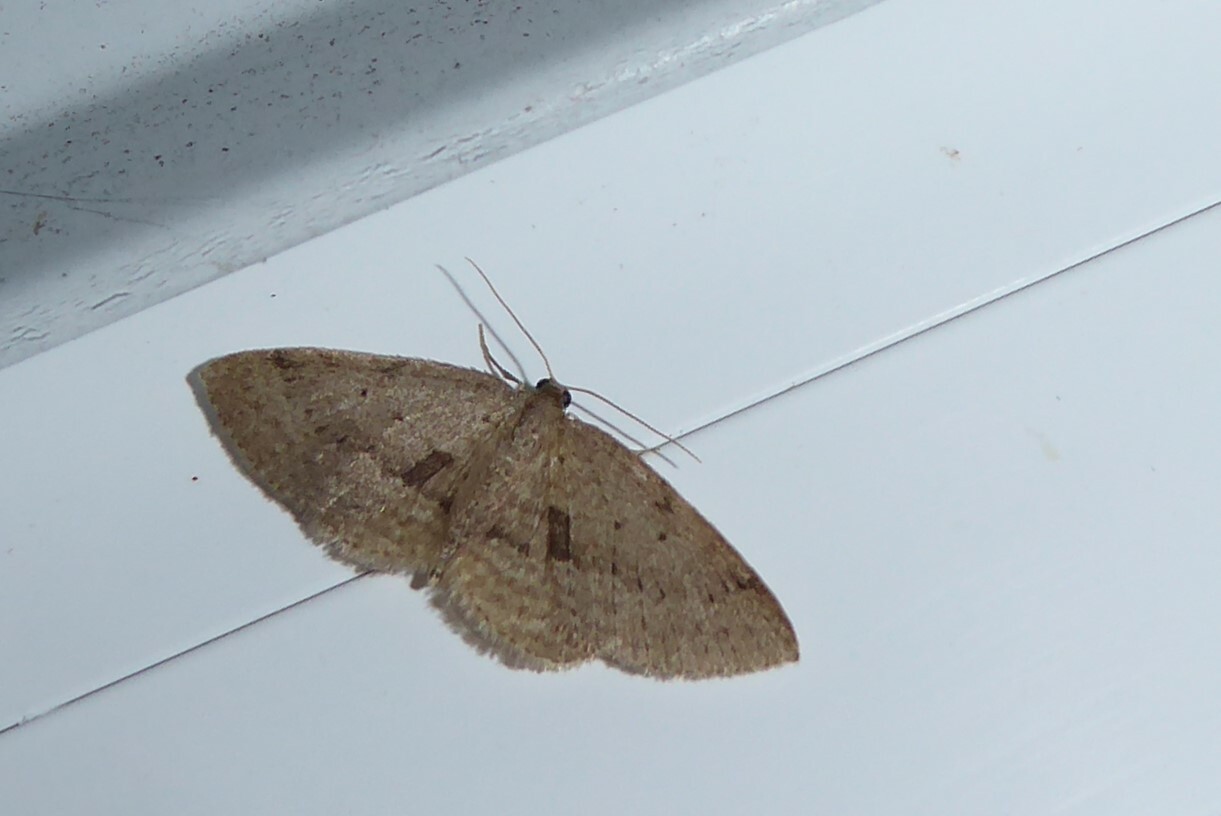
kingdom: Animalia
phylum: Arthropoda
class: Insecta
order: Lepidoptera
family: Geometridae
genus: Poecilasthena
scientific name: Poecilasthena schistaria
